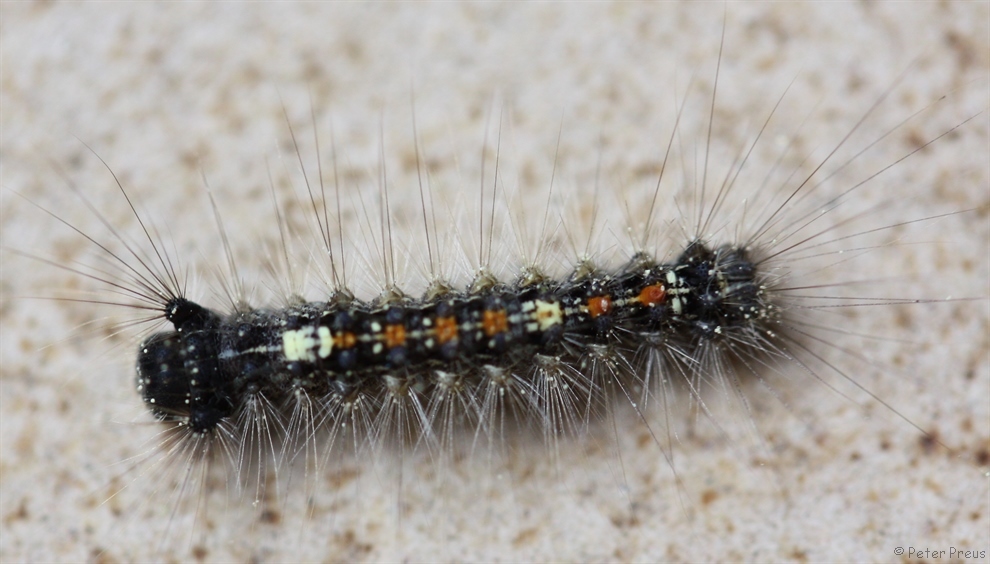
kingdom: Animalia
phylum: Arthropoda
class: Insecta
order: Lepidoptera
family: Erebidae
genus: Lymantria
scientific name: Lymantria dispar
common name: Gypsy moth
